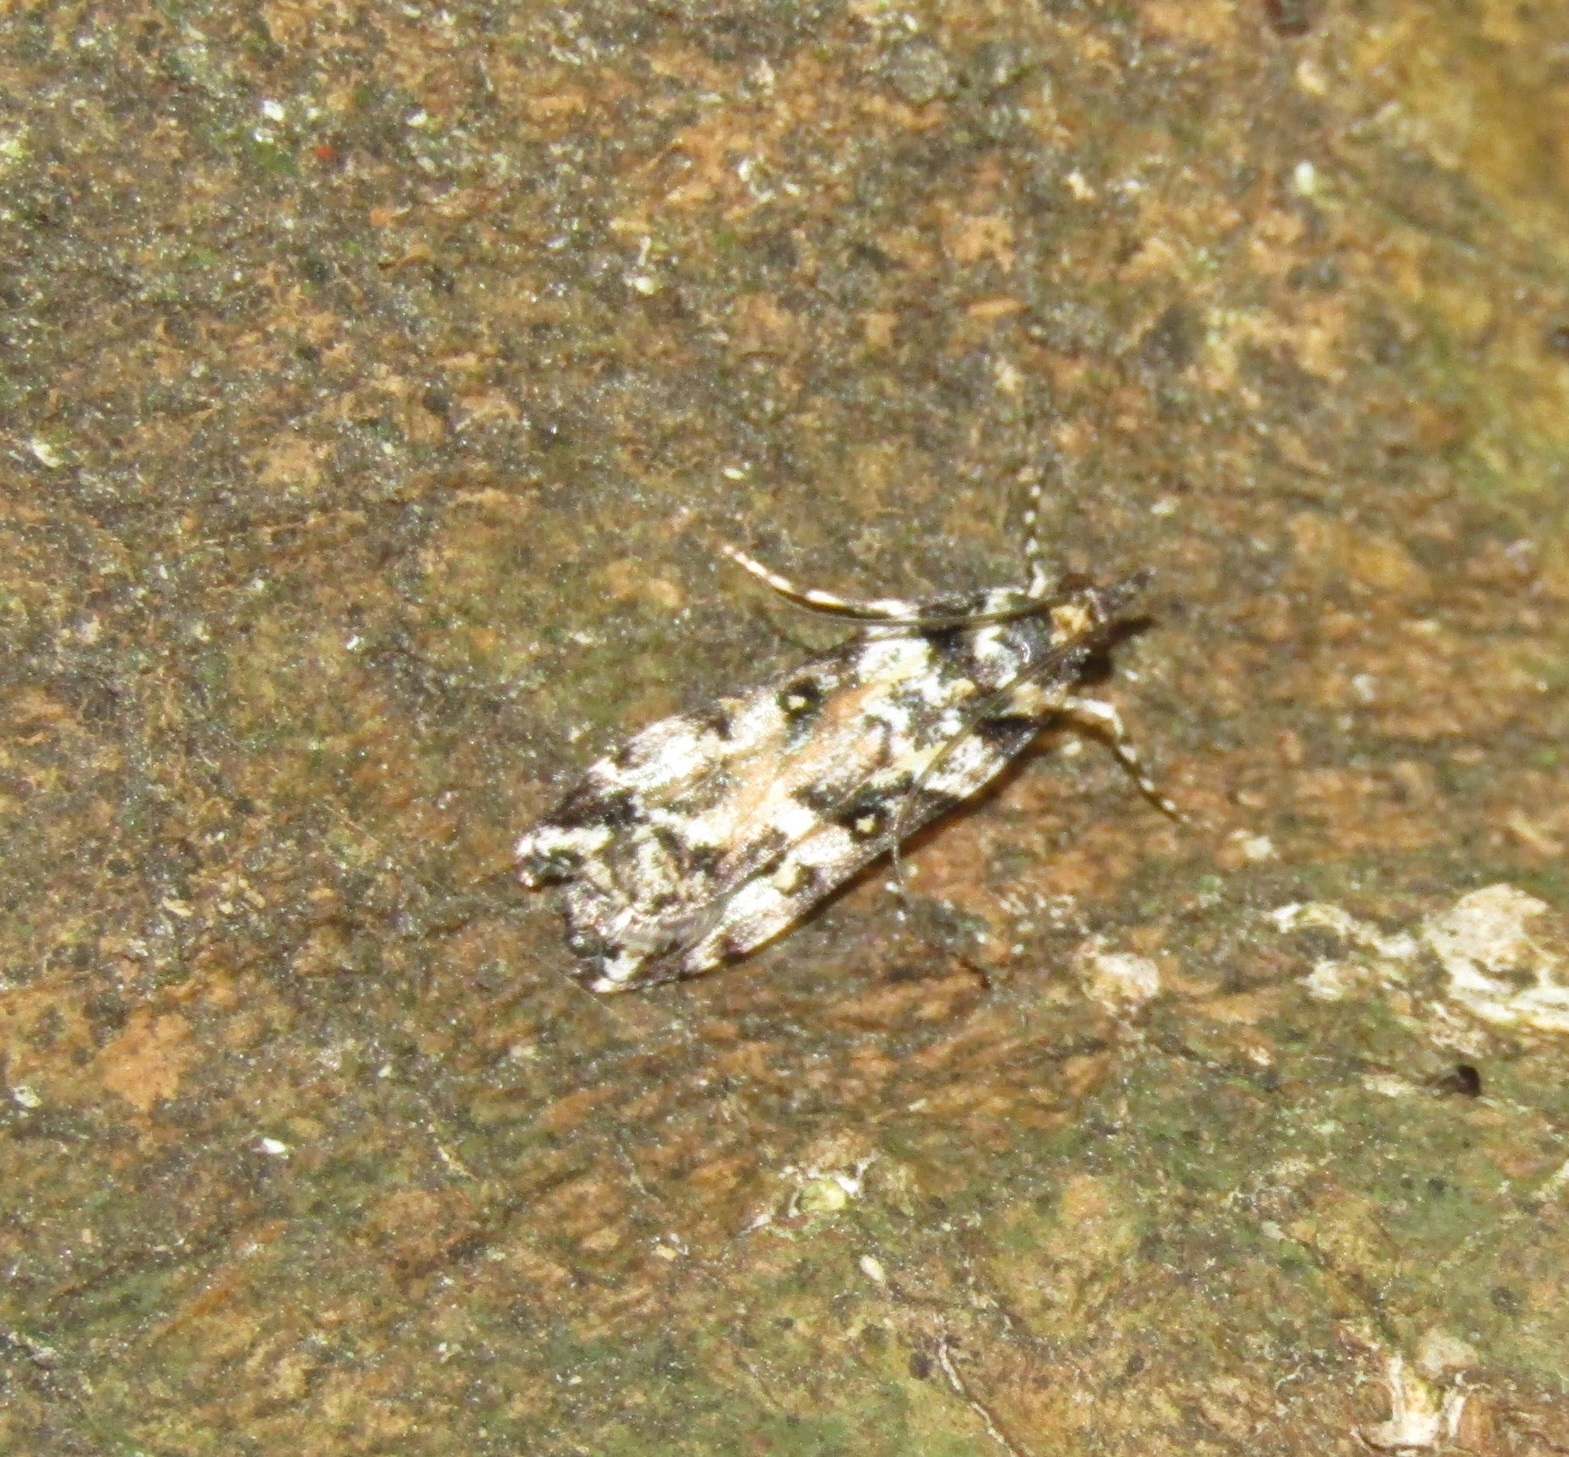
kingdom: Animalia
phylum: Arthropoda
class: Insecta
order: Lepidoptera
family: Crambidae
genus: Eudonia
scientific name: Eudonia diphtheralis
